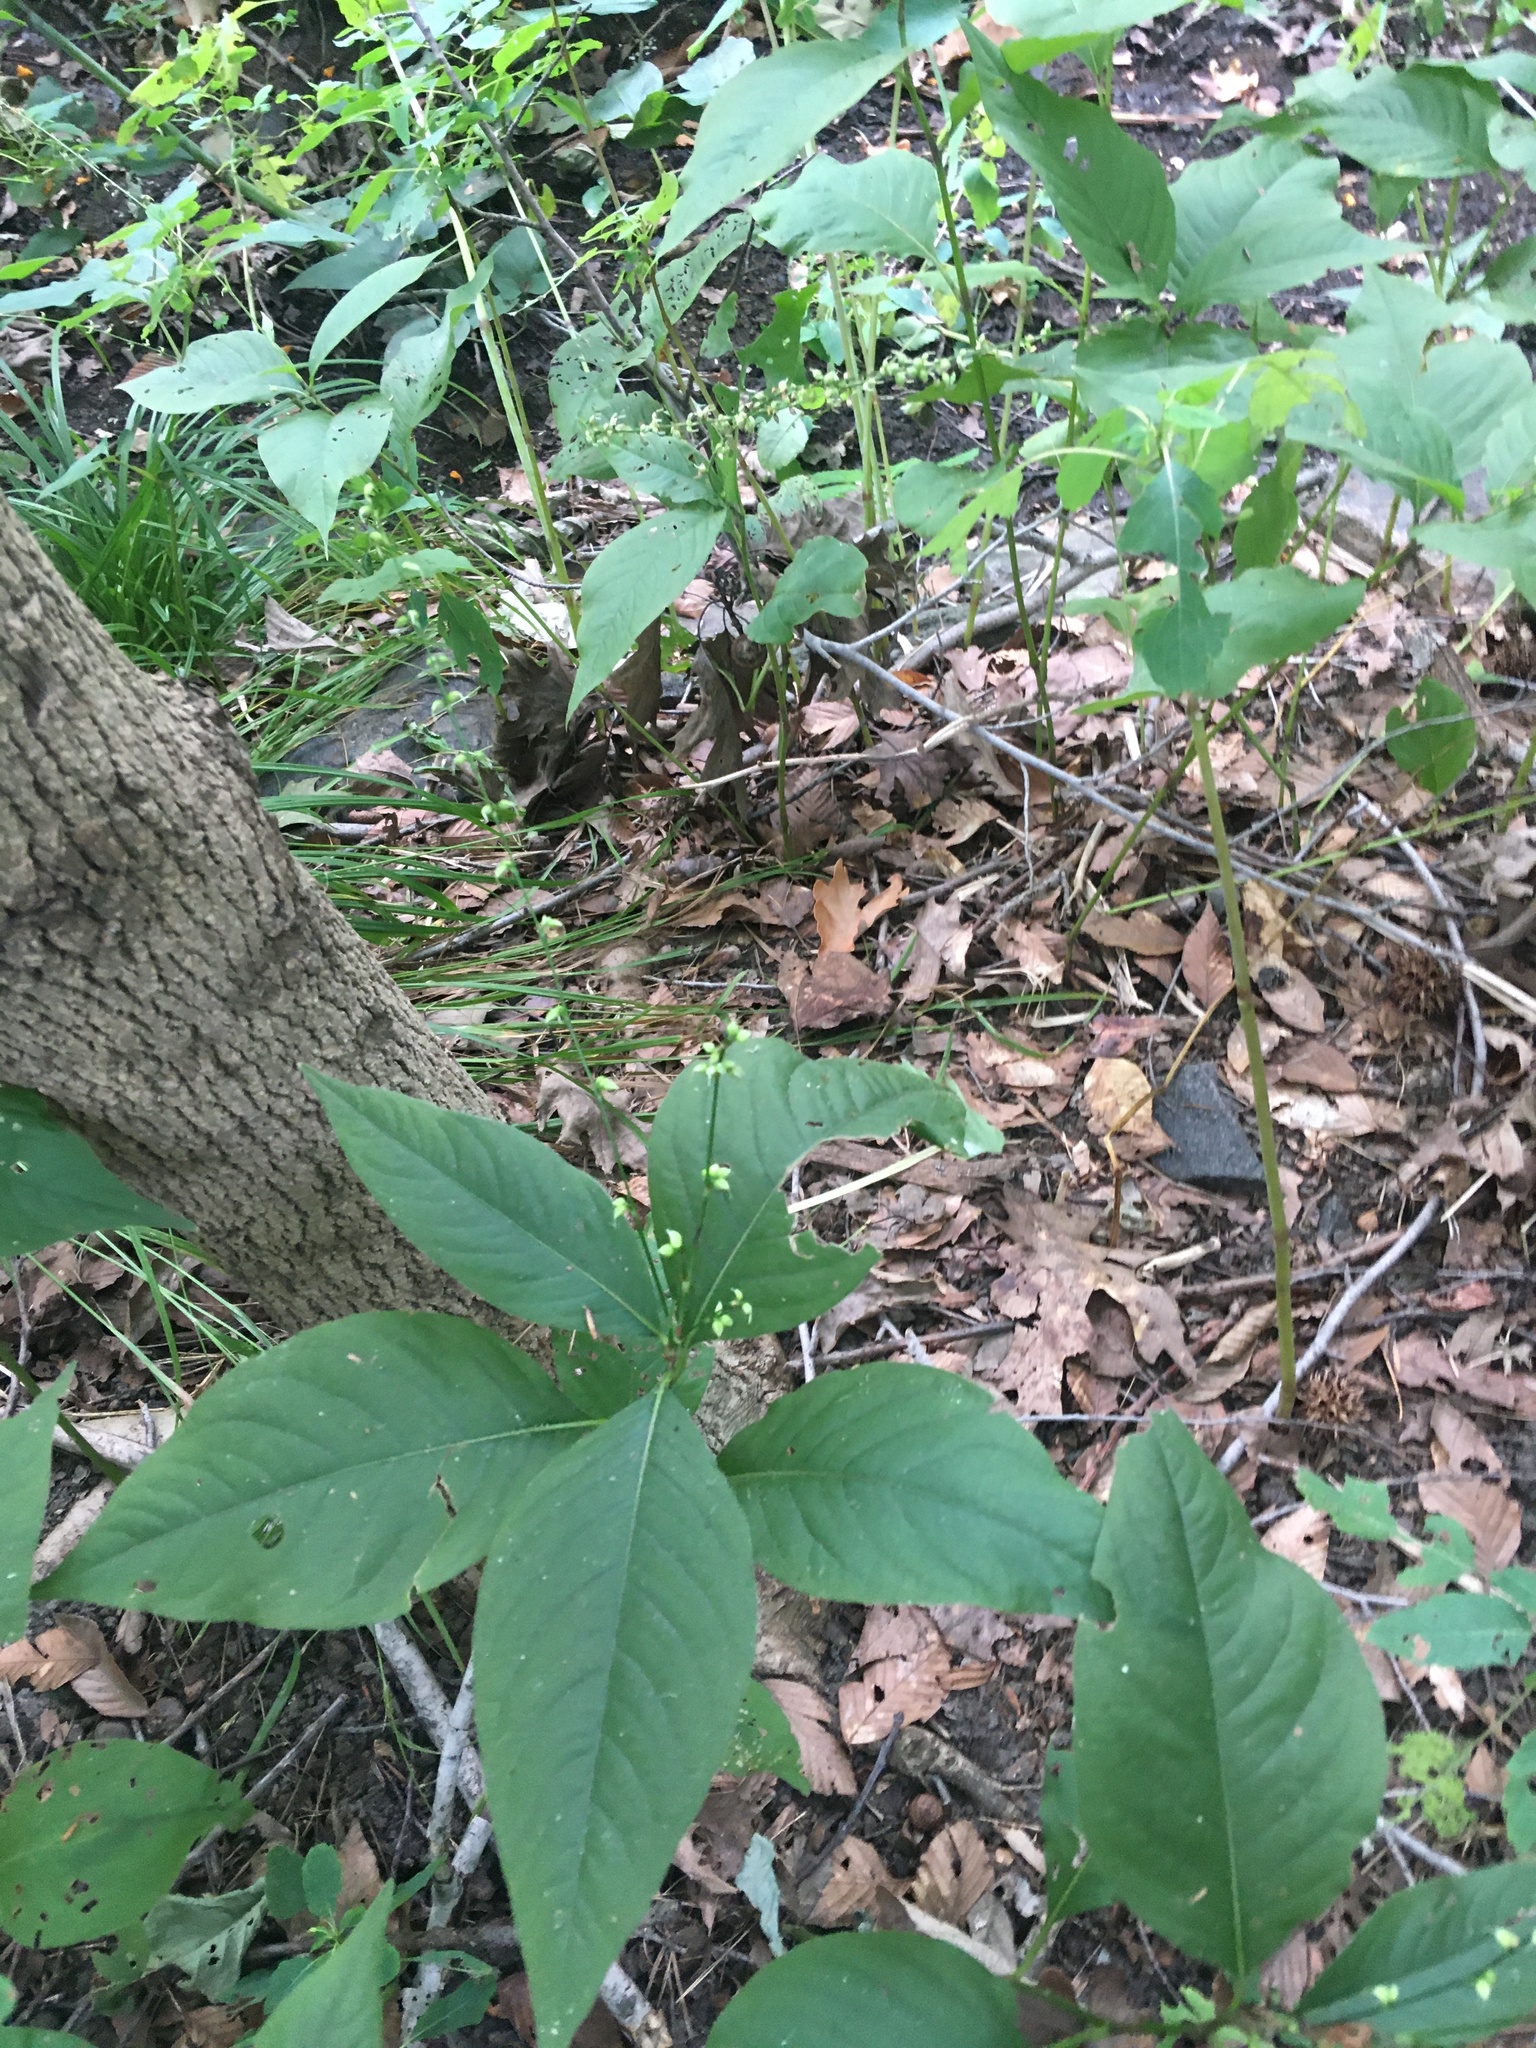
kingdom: Plantae
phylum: Tracheophyta
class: Magnoliopsida
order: Caryophyllales
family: Polygonaceae
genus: Persicaria
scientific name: Persicaria virginiana
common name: Jumpseed
